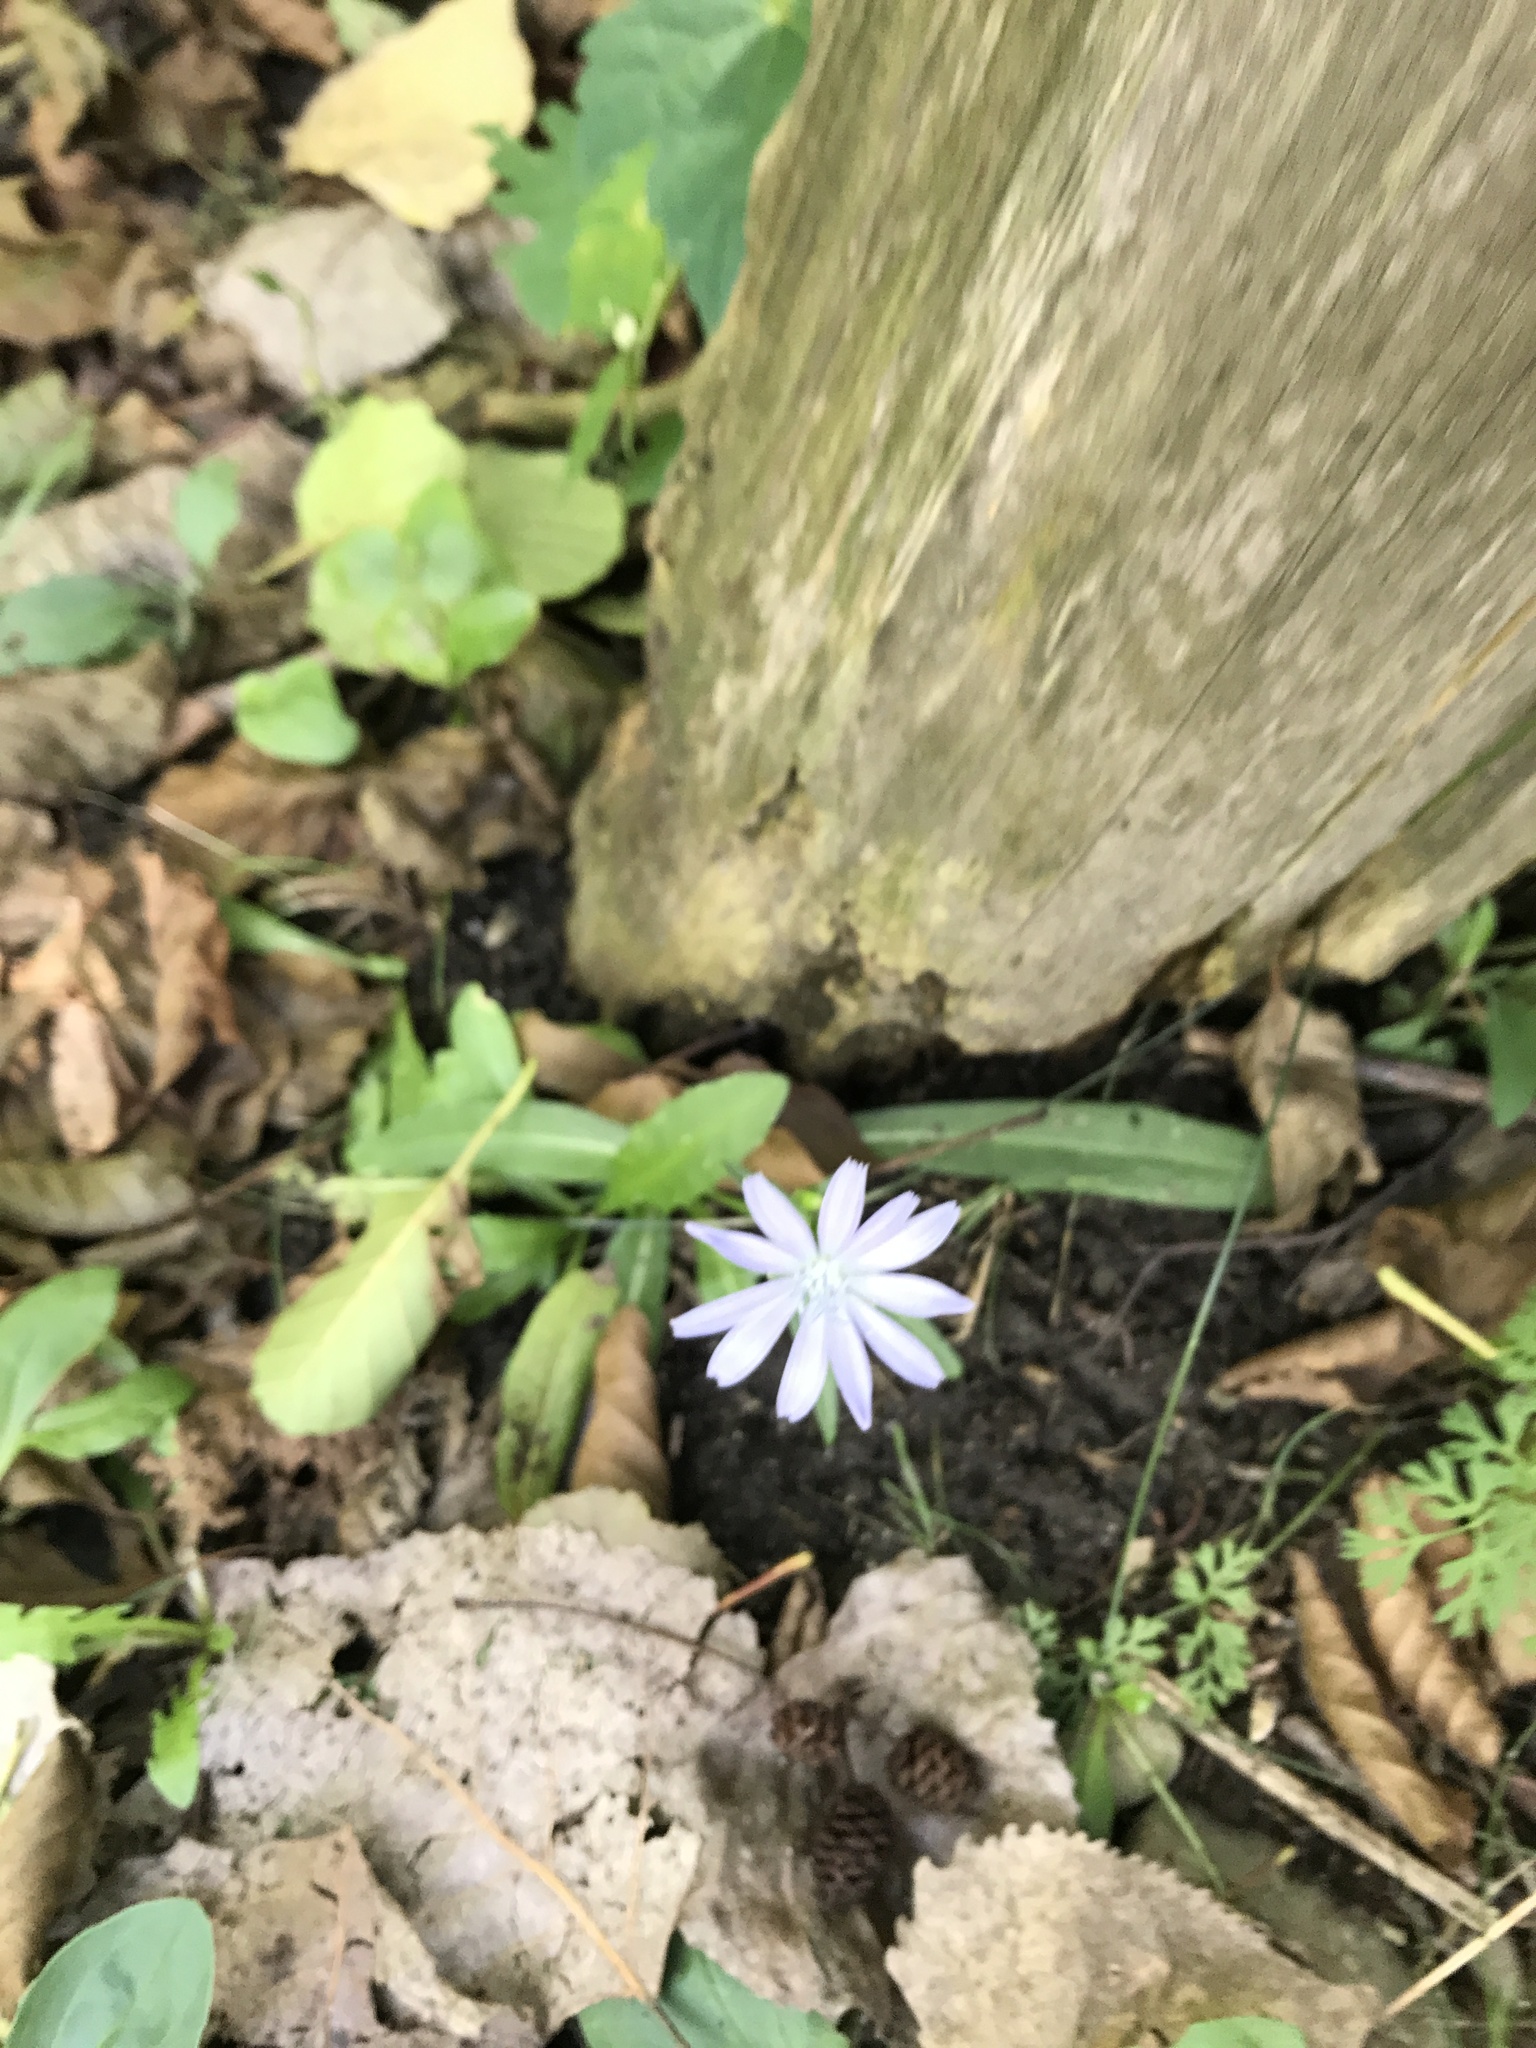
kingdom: Plantae
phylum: Tracheophyta
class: Magnoliopsida
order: Asterales
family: Asteraceae
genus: Cichorium
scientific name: Cichorium intybus
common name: Chicory
